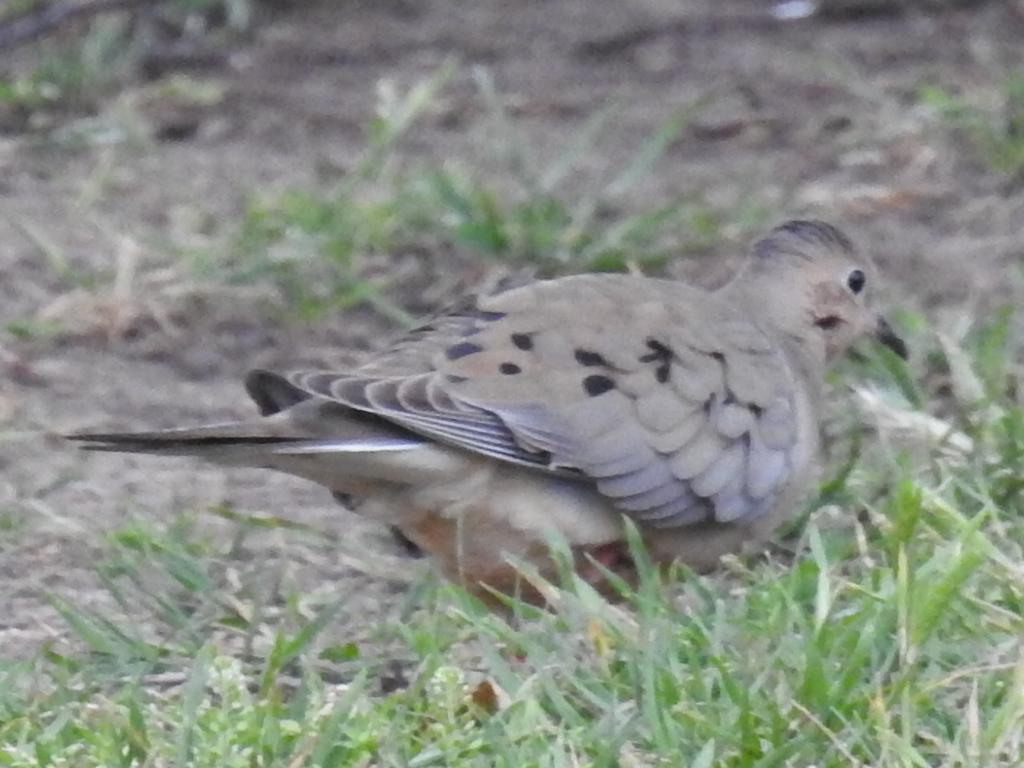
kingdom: Animalia
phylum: Chordata
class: Aves
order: Columbiformes
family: Columbidae
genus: Zenaida
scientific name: Zenaida macroura
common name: Mourning dove
